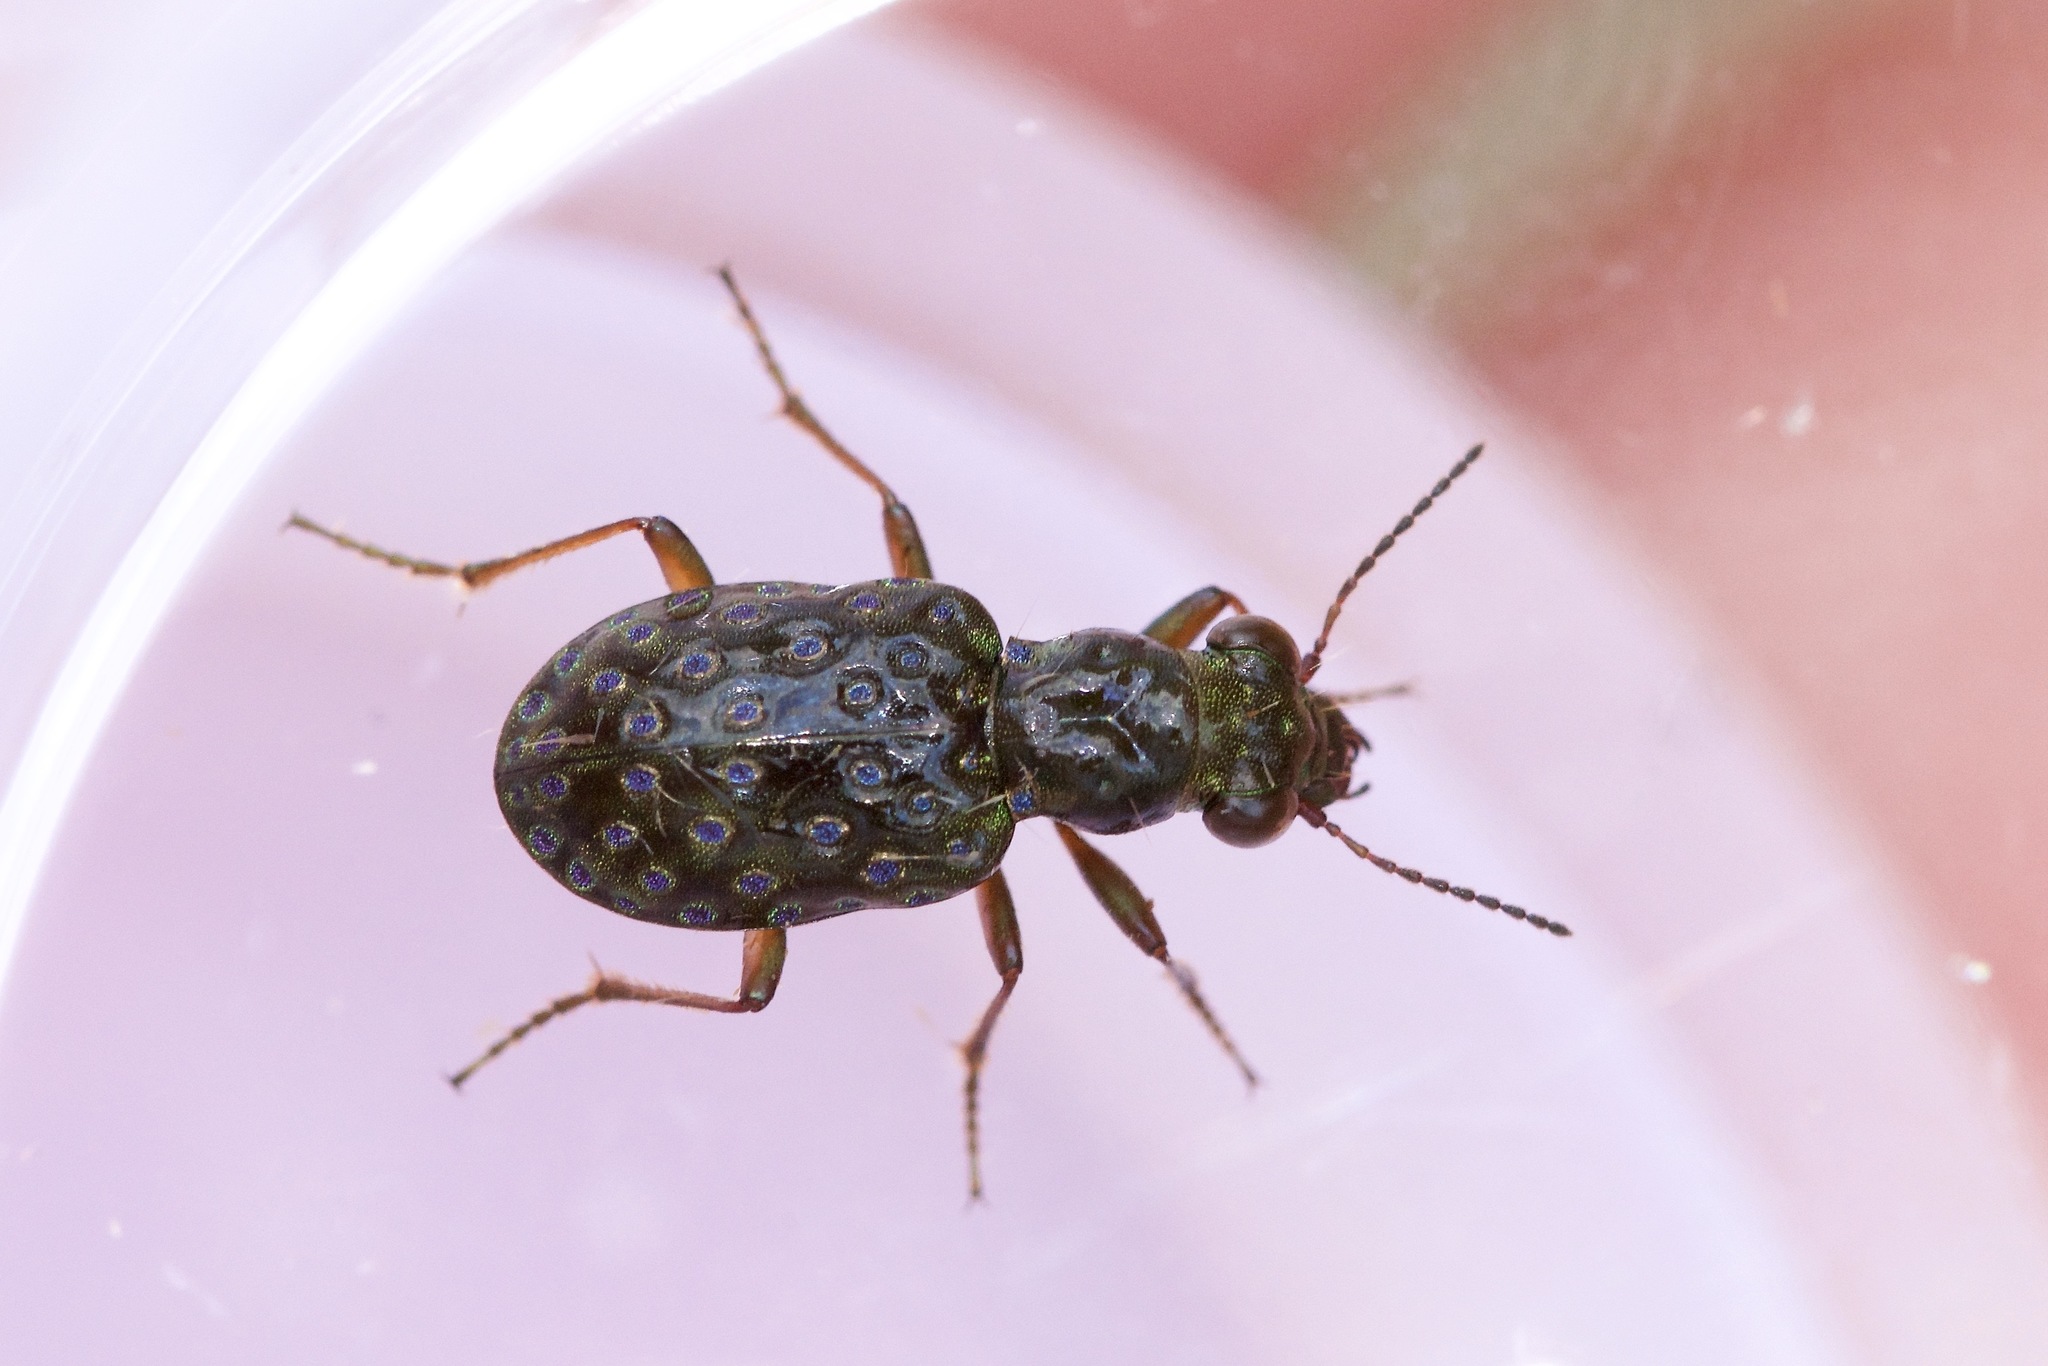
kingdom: Animalia
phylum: Arthropoda
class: Insecta
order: Coleoptera
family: Carabidae
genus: Elaphrus
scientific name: Elaphrus olivaceus
